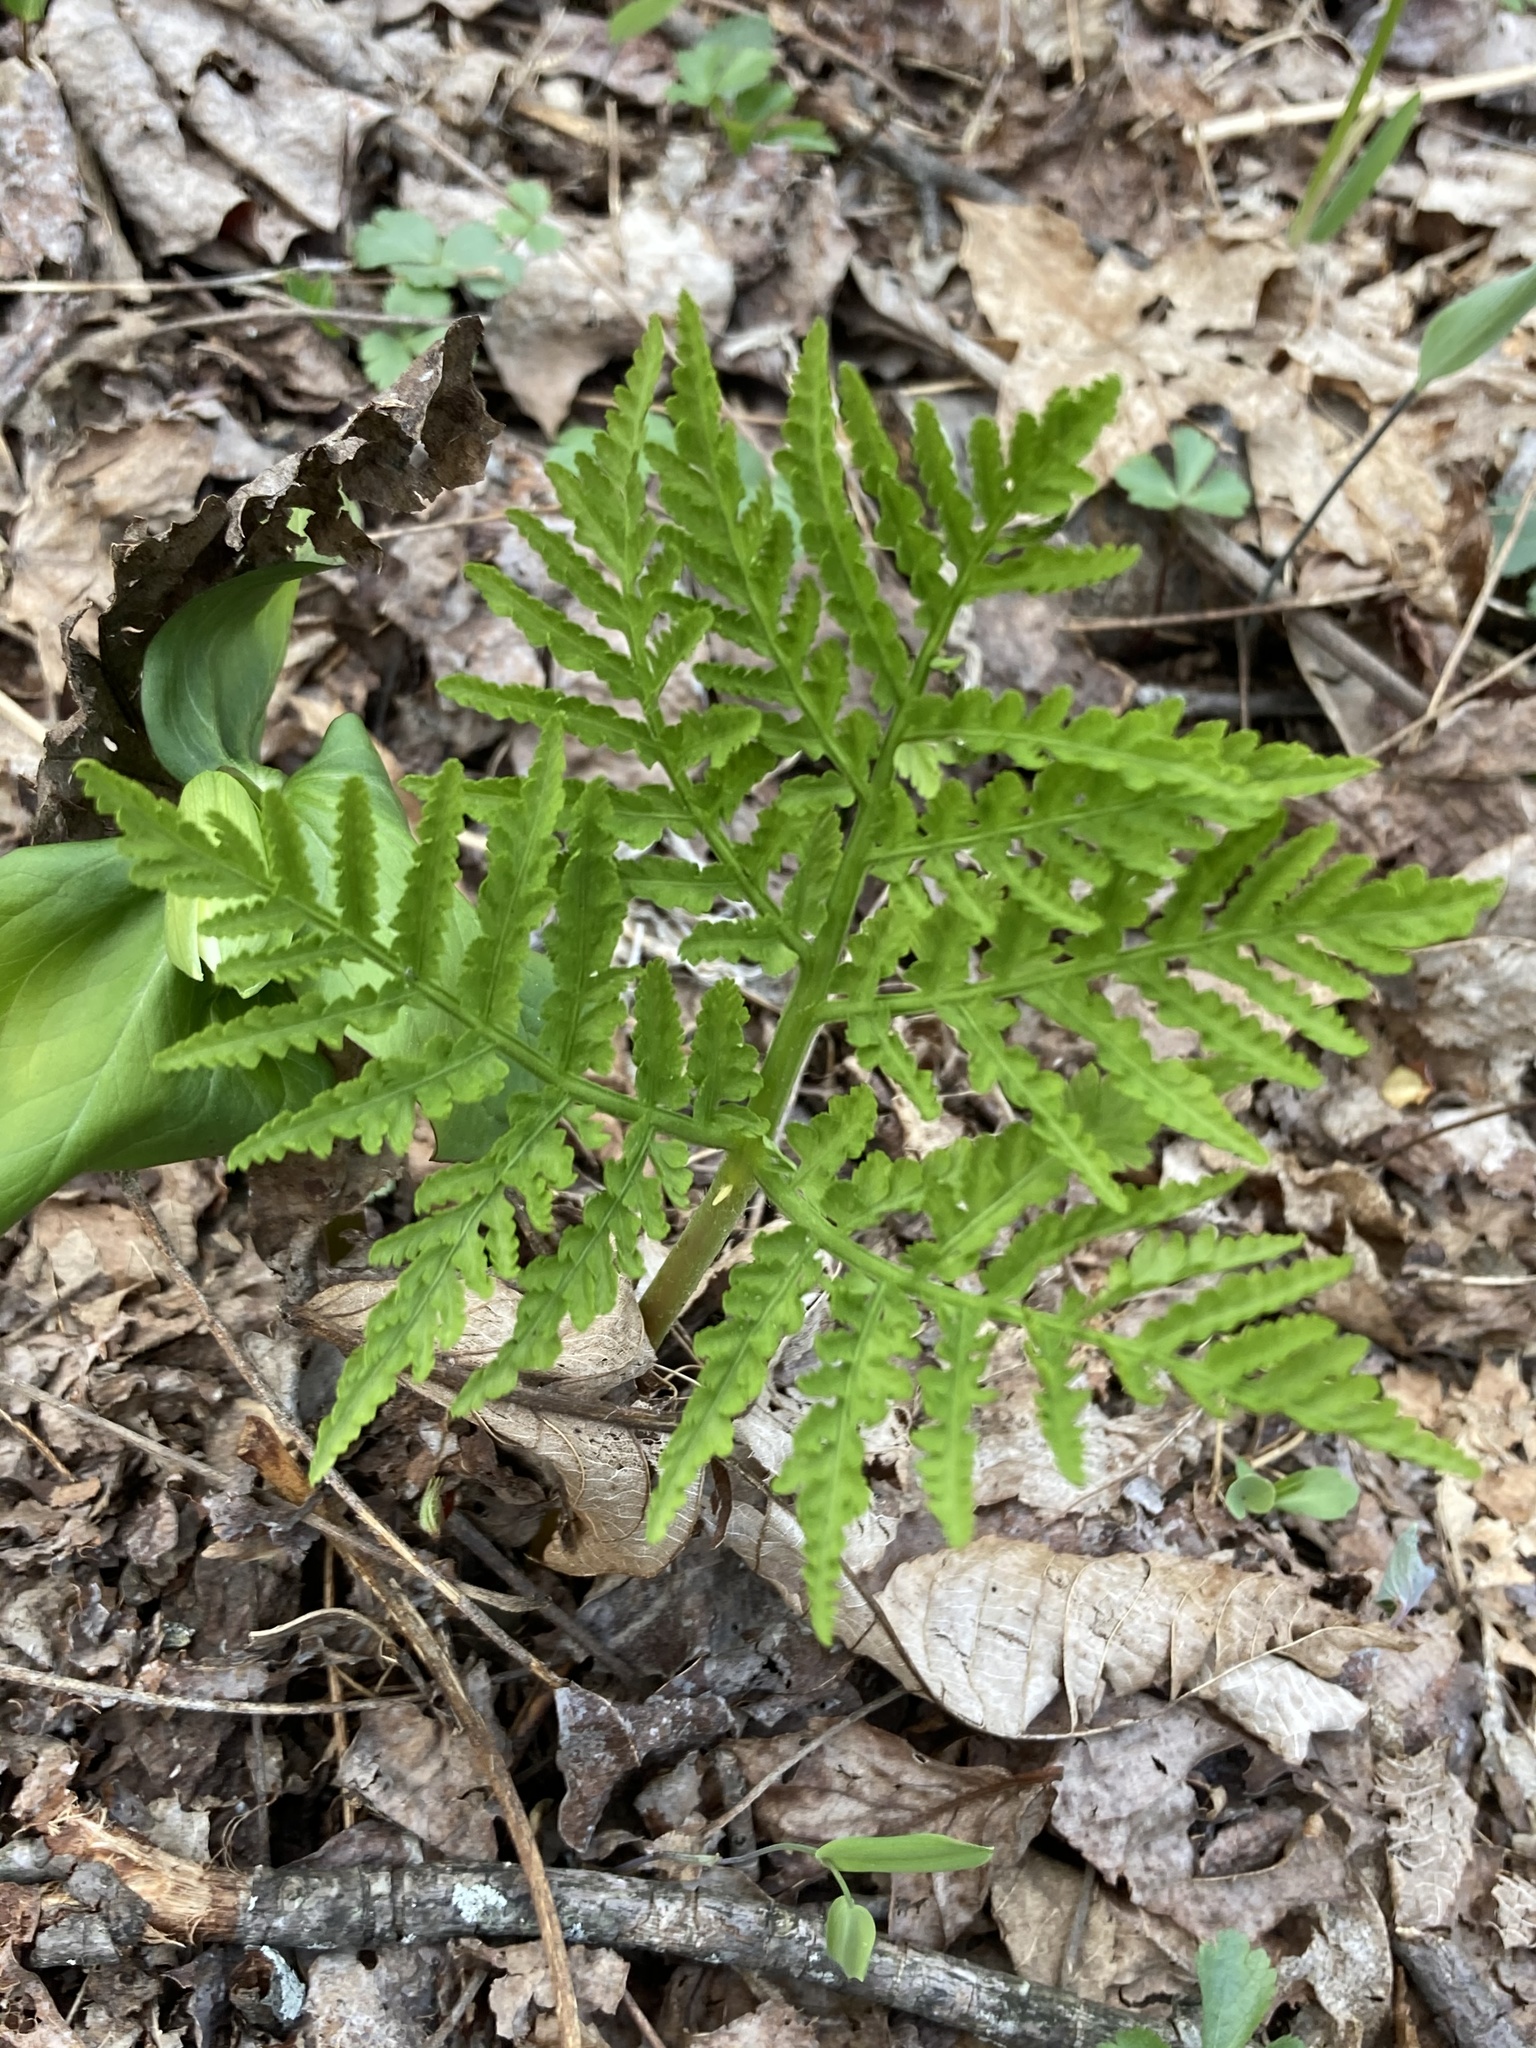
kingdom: Plantae
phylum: Tracheophyta
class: Polypodiopsida
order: Ophioglossales
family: Ophioglossaceae
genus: Botrypus
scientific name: Botrypus virginianus
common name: Common grapefern
